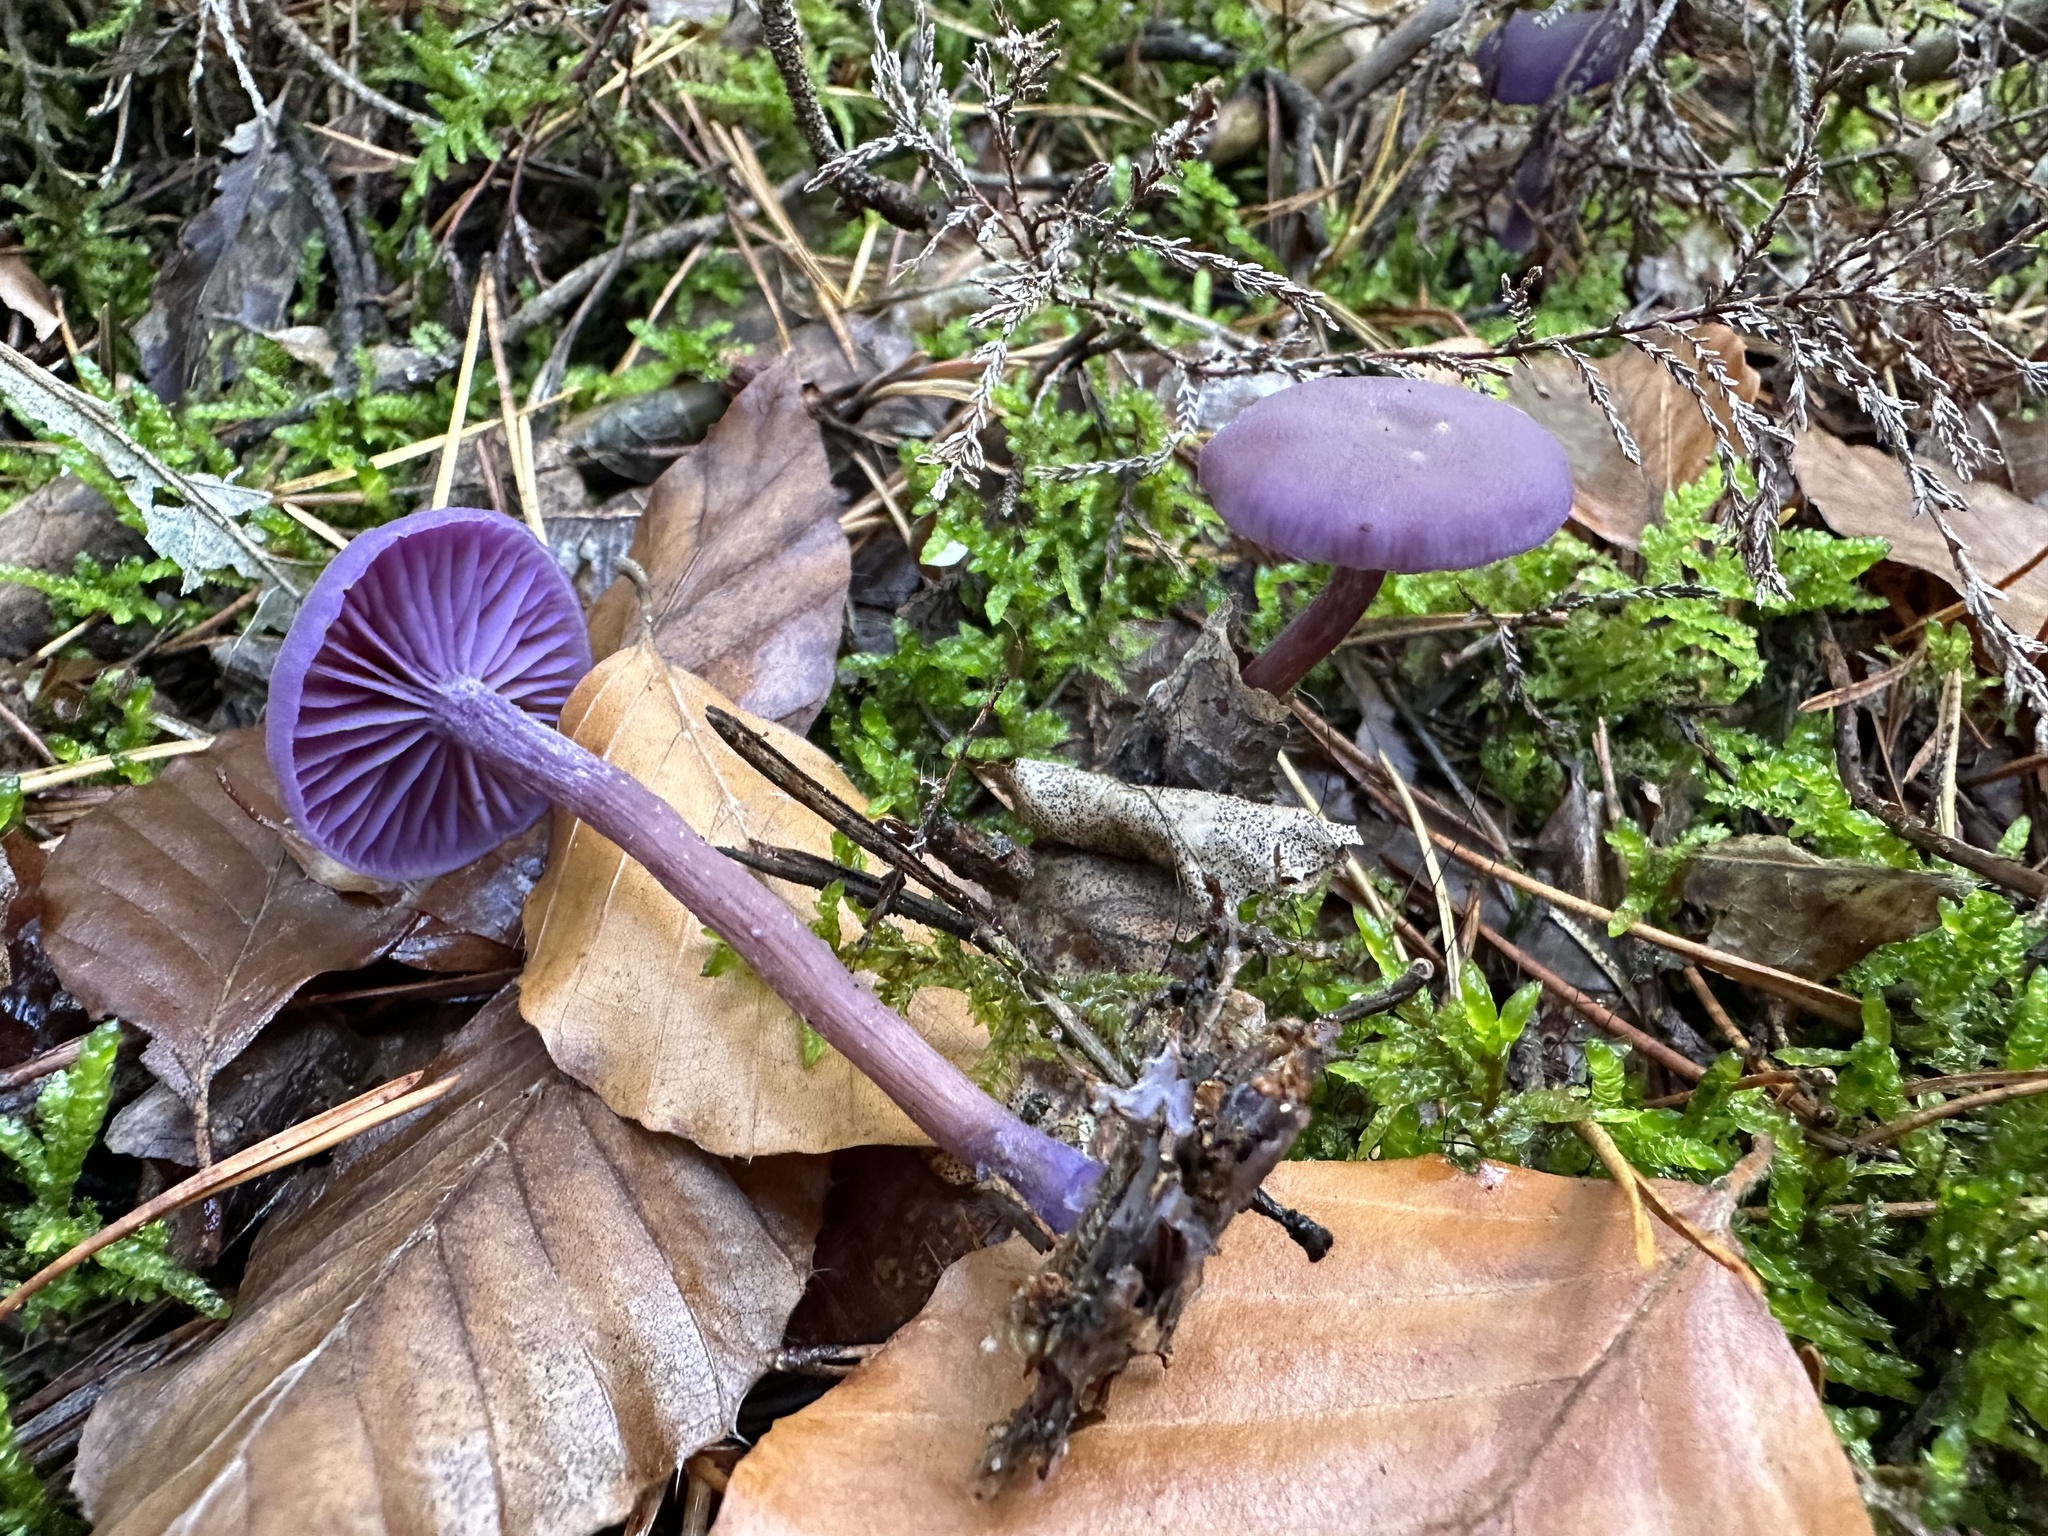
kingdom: Fungi
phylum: Basidiomycota
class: Agaricomycetes
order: Agaricales
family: Hydnangiaceae
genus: Laccaria
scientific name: Laccaria amethystina
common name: Amethyst deceiver
